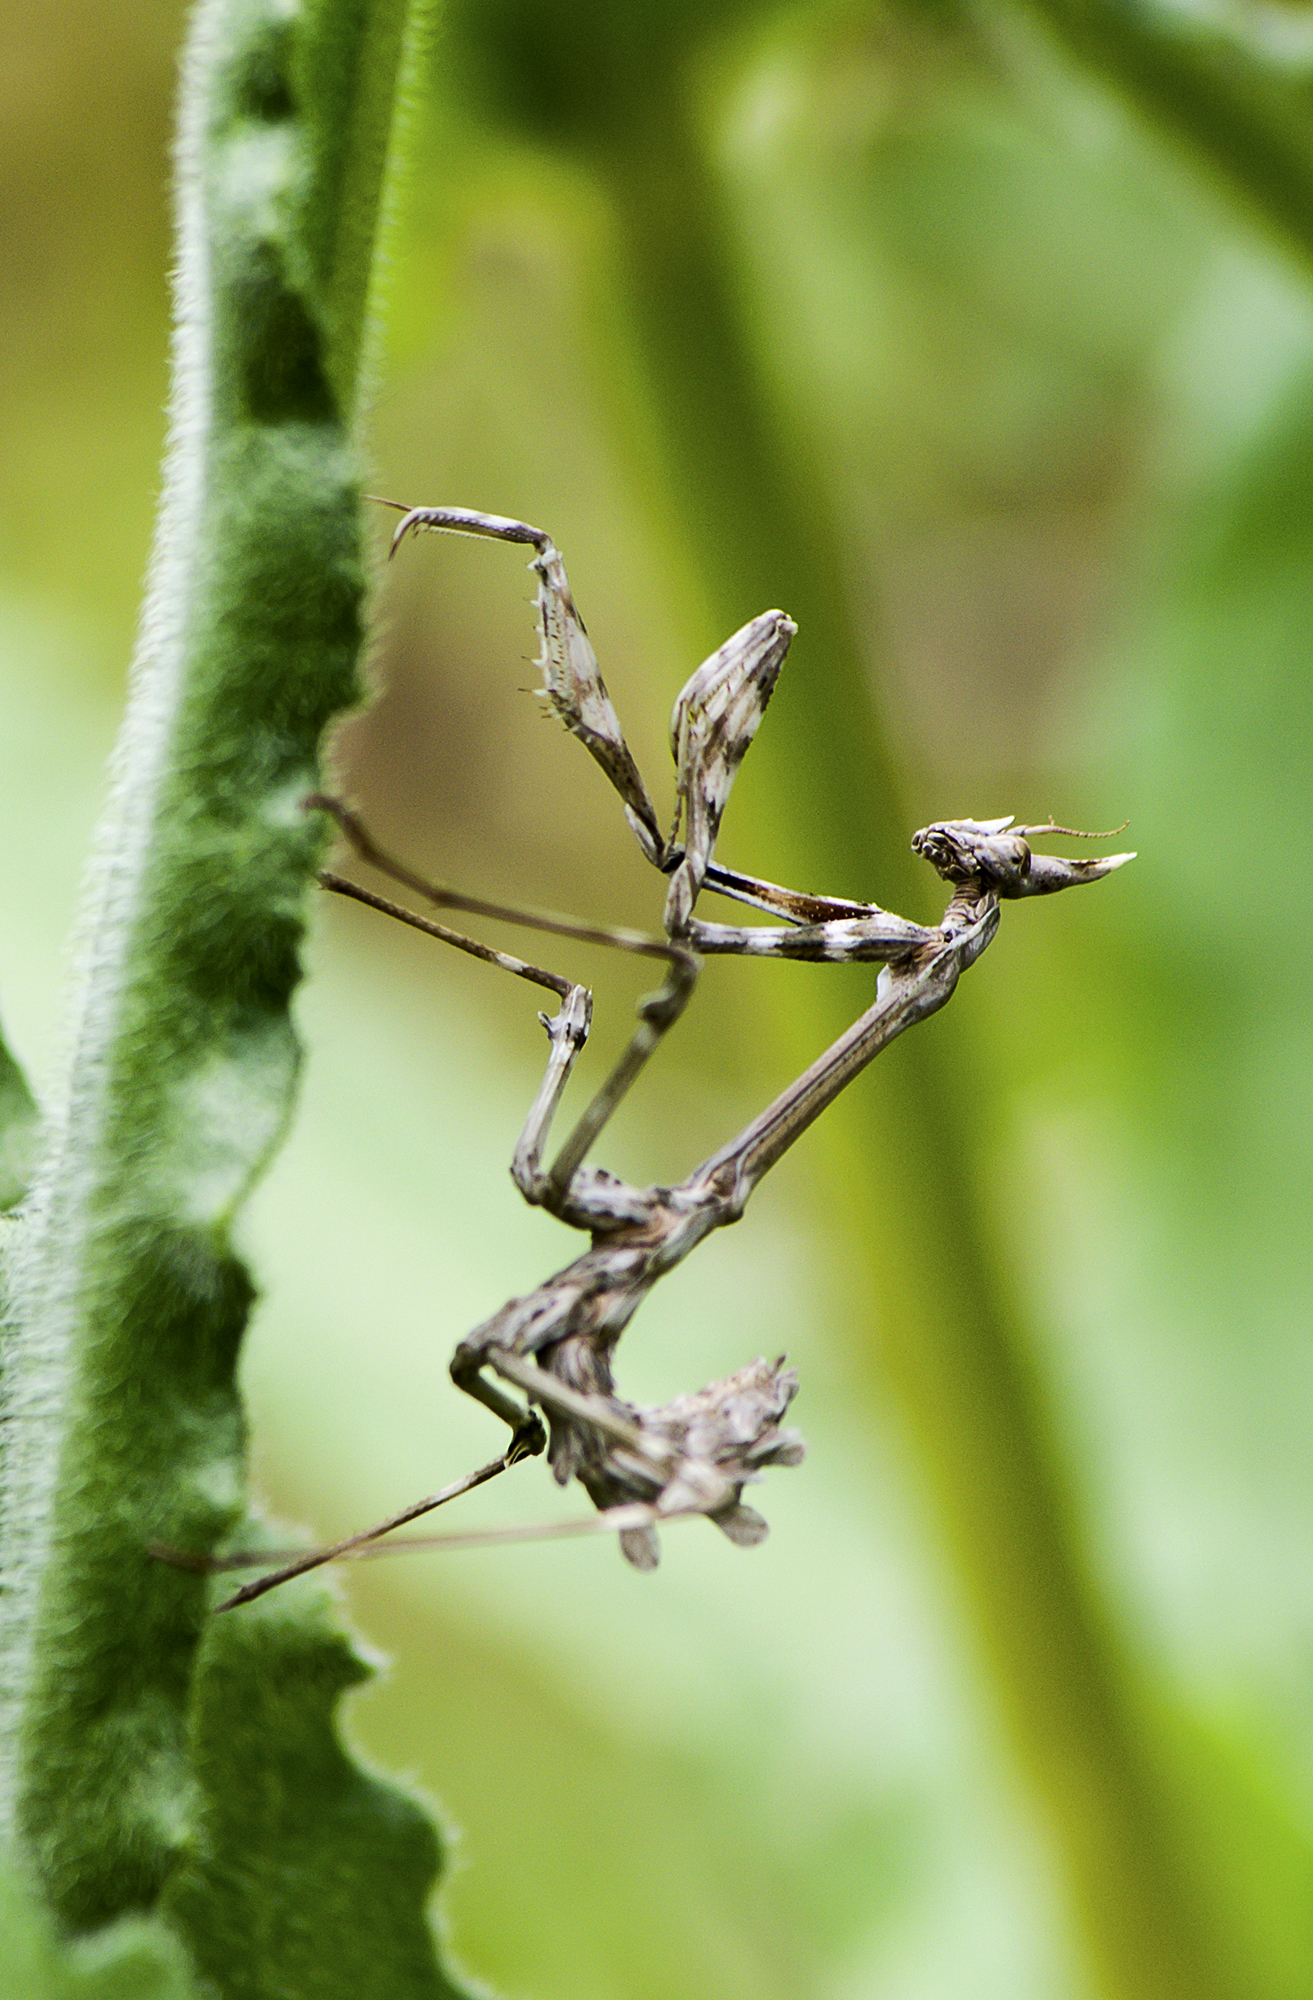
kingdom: Animalia
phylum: Arthropoda
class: Insecta
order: Mantodea
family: Empusidae
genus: Empusa
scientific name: Empusa fasciata
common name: Devil's mare
